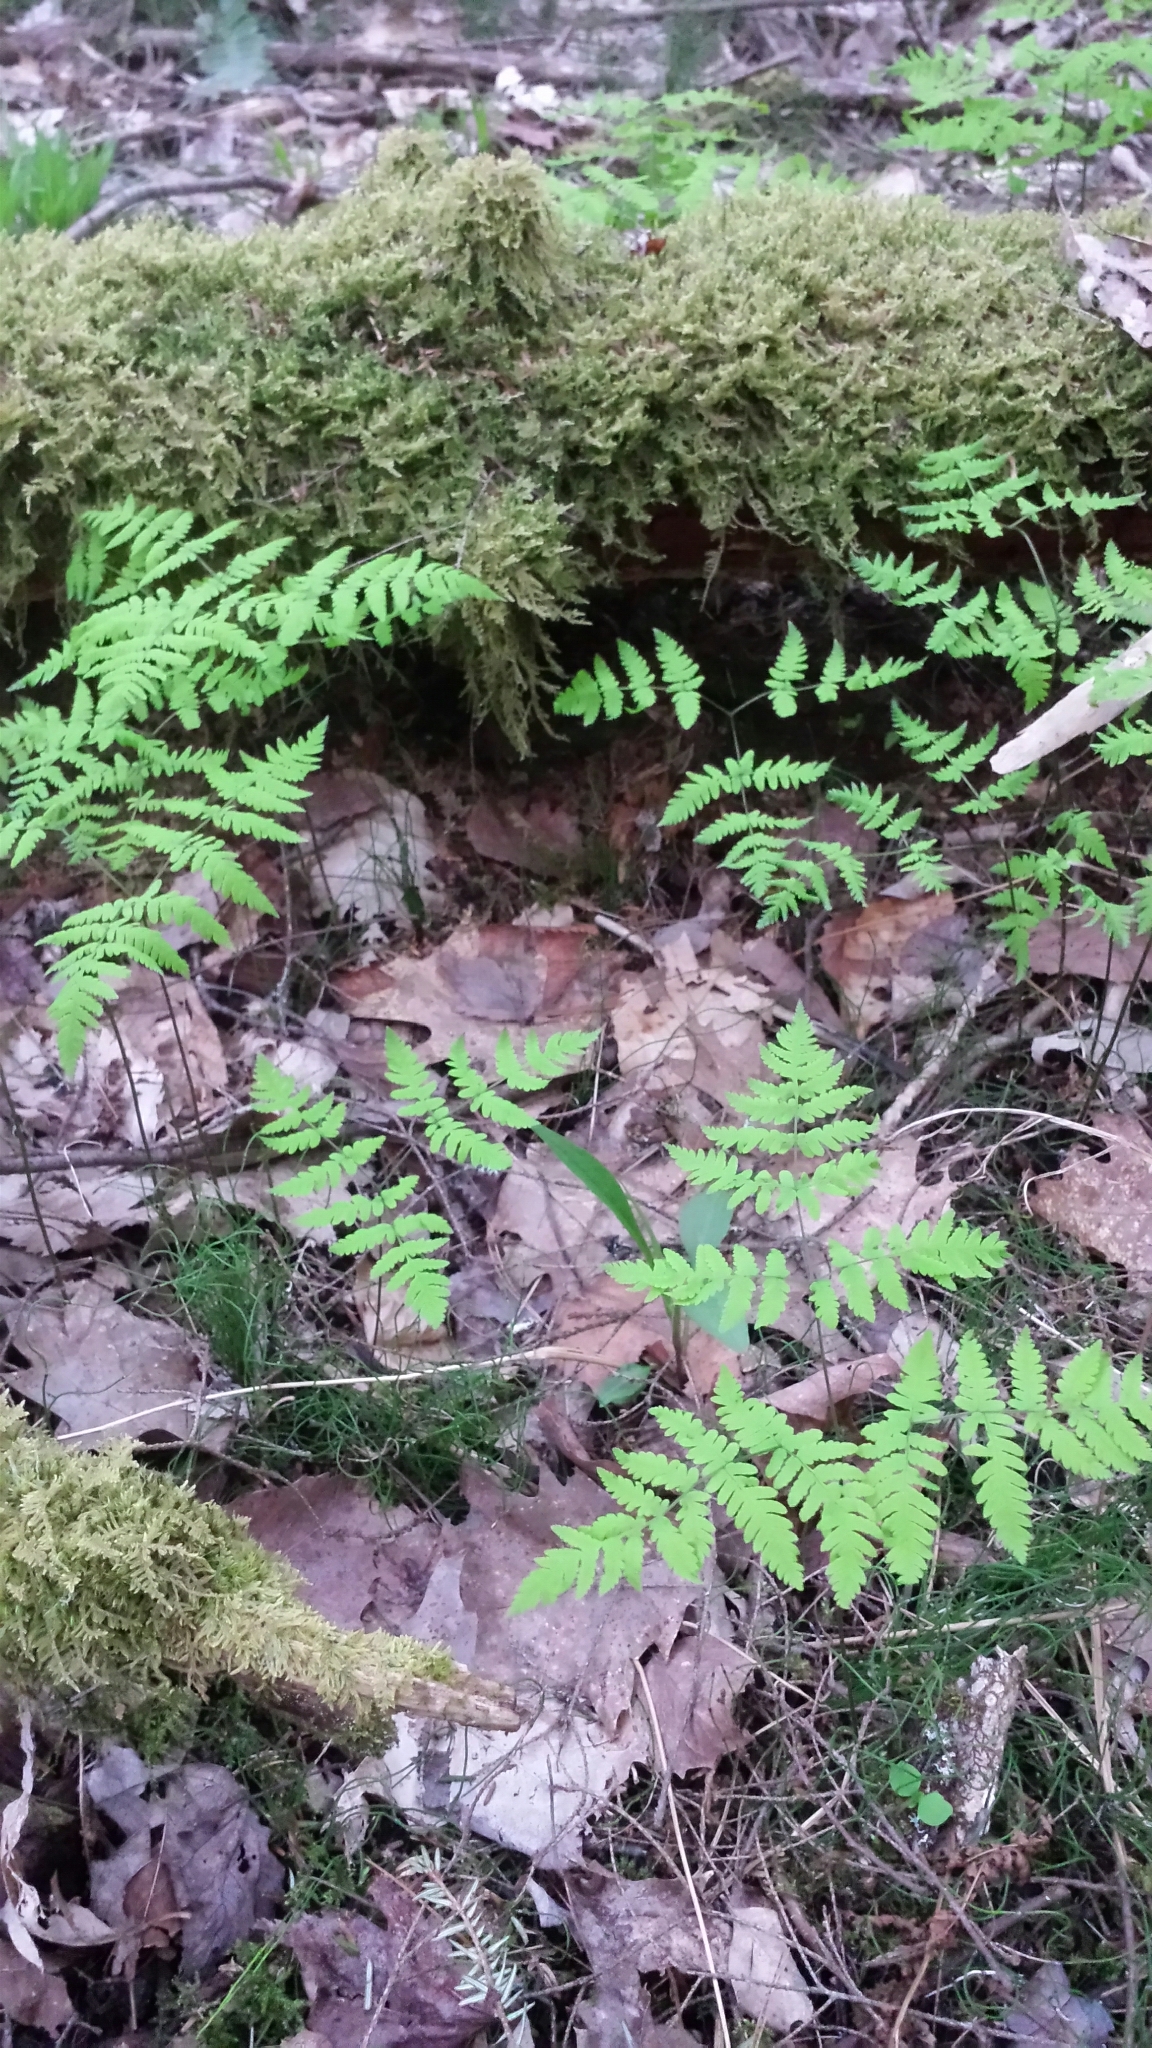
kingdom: Plantae
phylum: Tracheophyta
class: Polypodiopsida
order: Polypodiales
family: Cystopteridaceae
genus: Gymnocarpium
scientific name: Gymnocarpium dryopteris
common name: Oak fern
